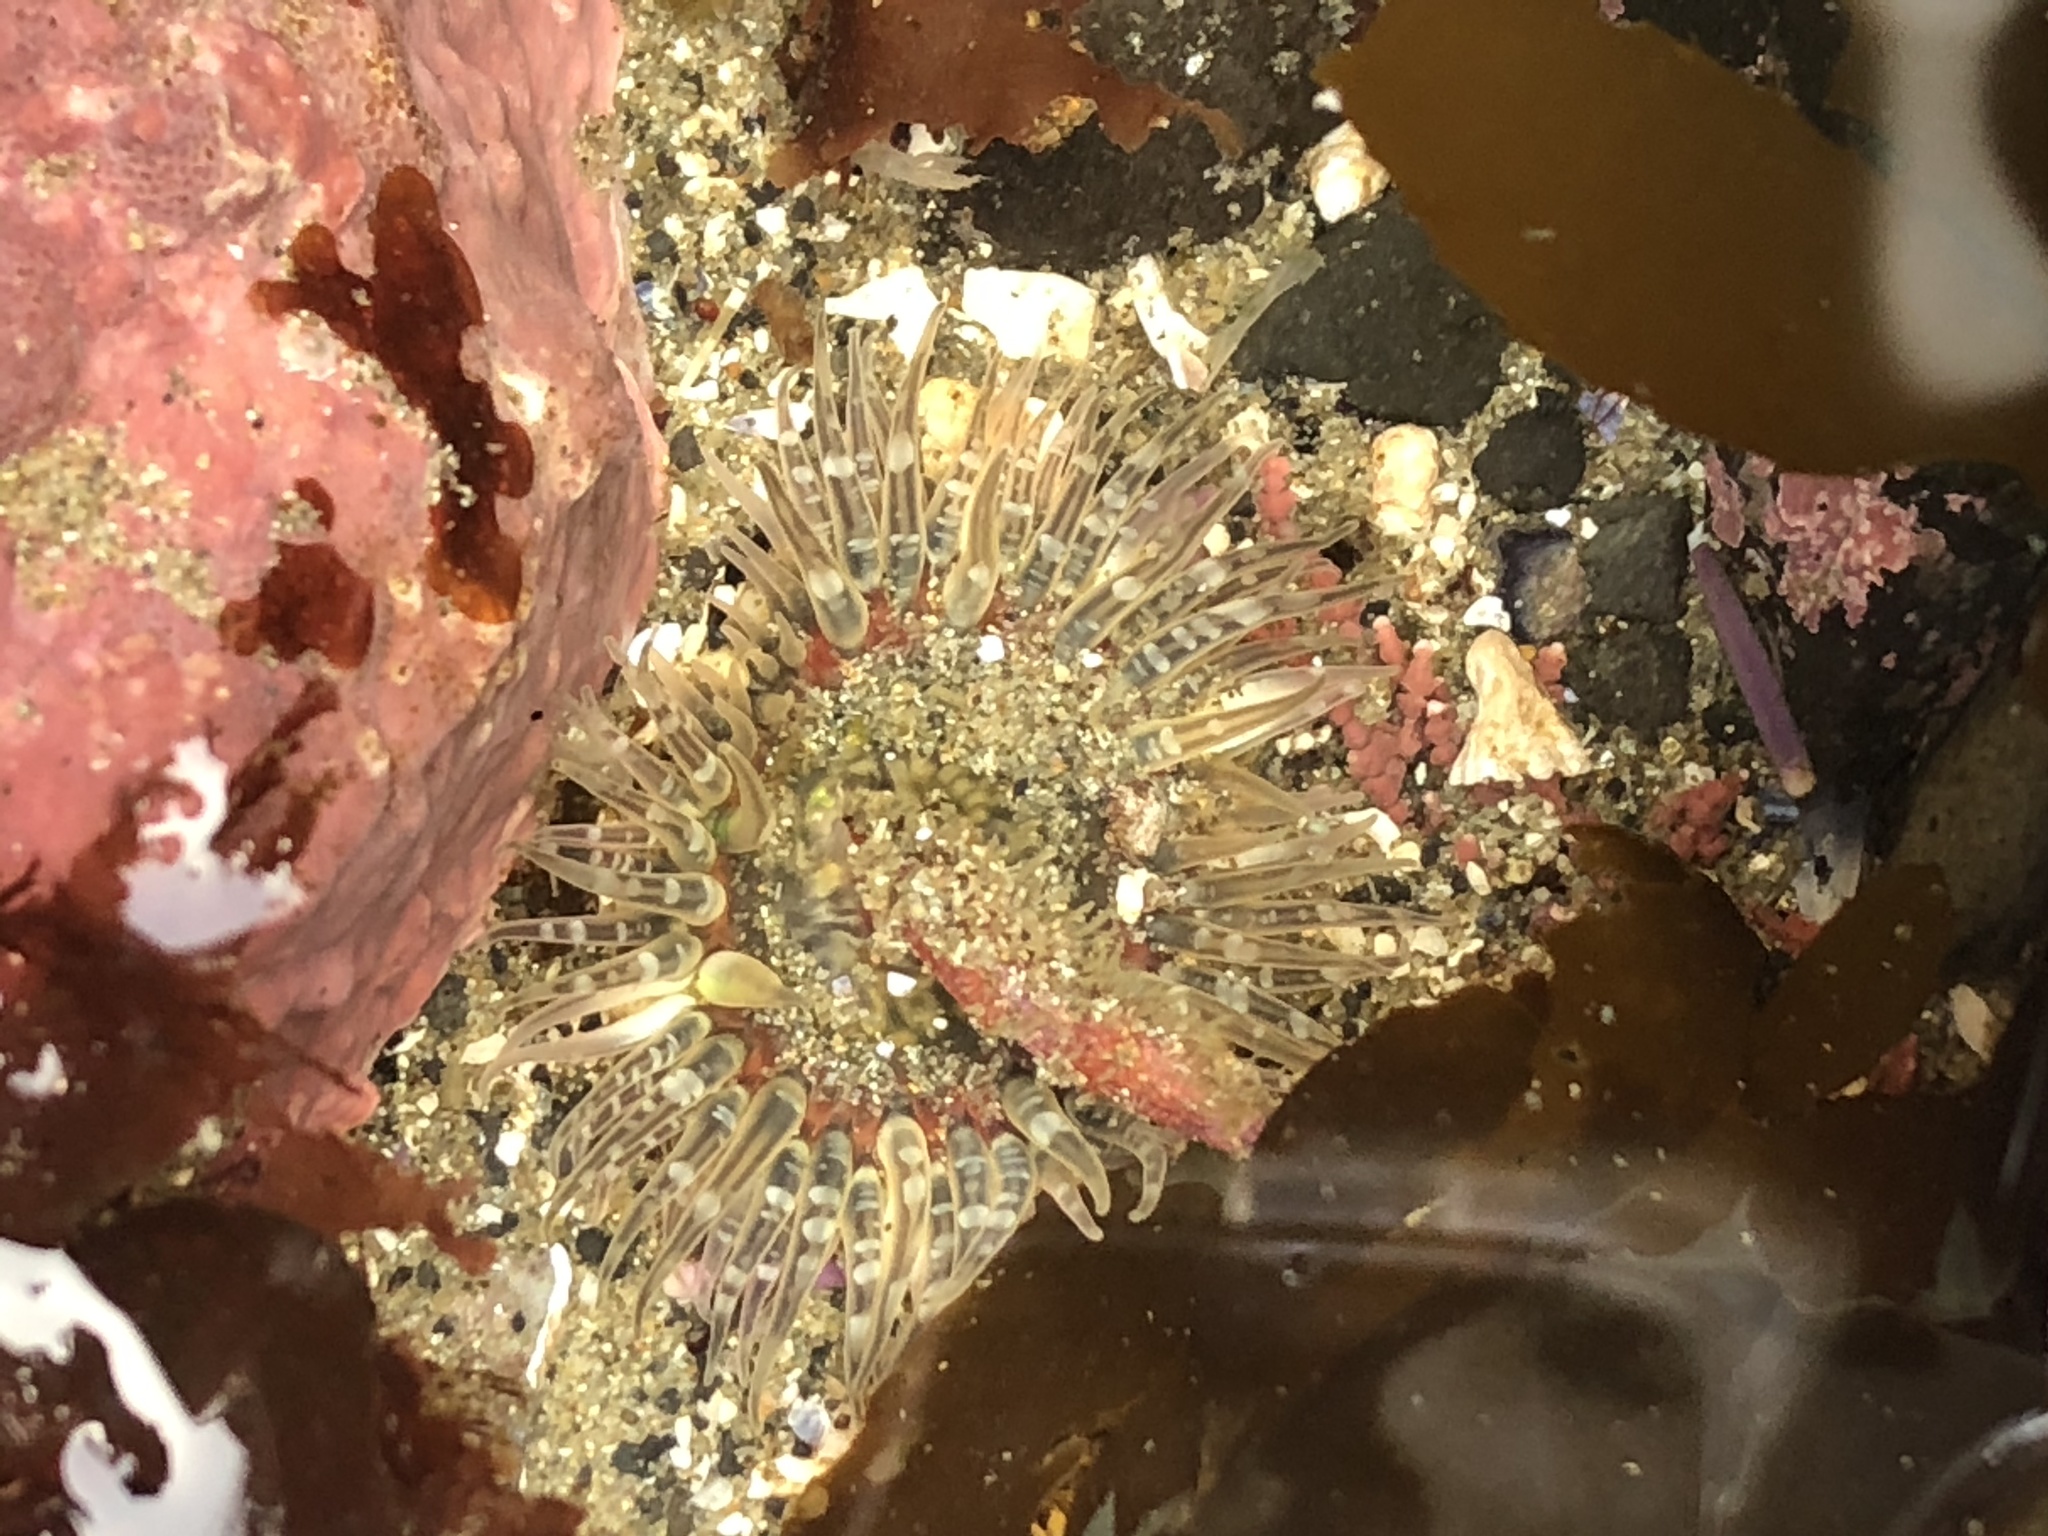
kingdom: Animalia
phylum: Cnidaria
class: Anthozoa
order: Actiniaria
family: Actiniidae
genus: Anthopleura
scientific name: Anthopleura artemisia
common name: Buried sea anemone
